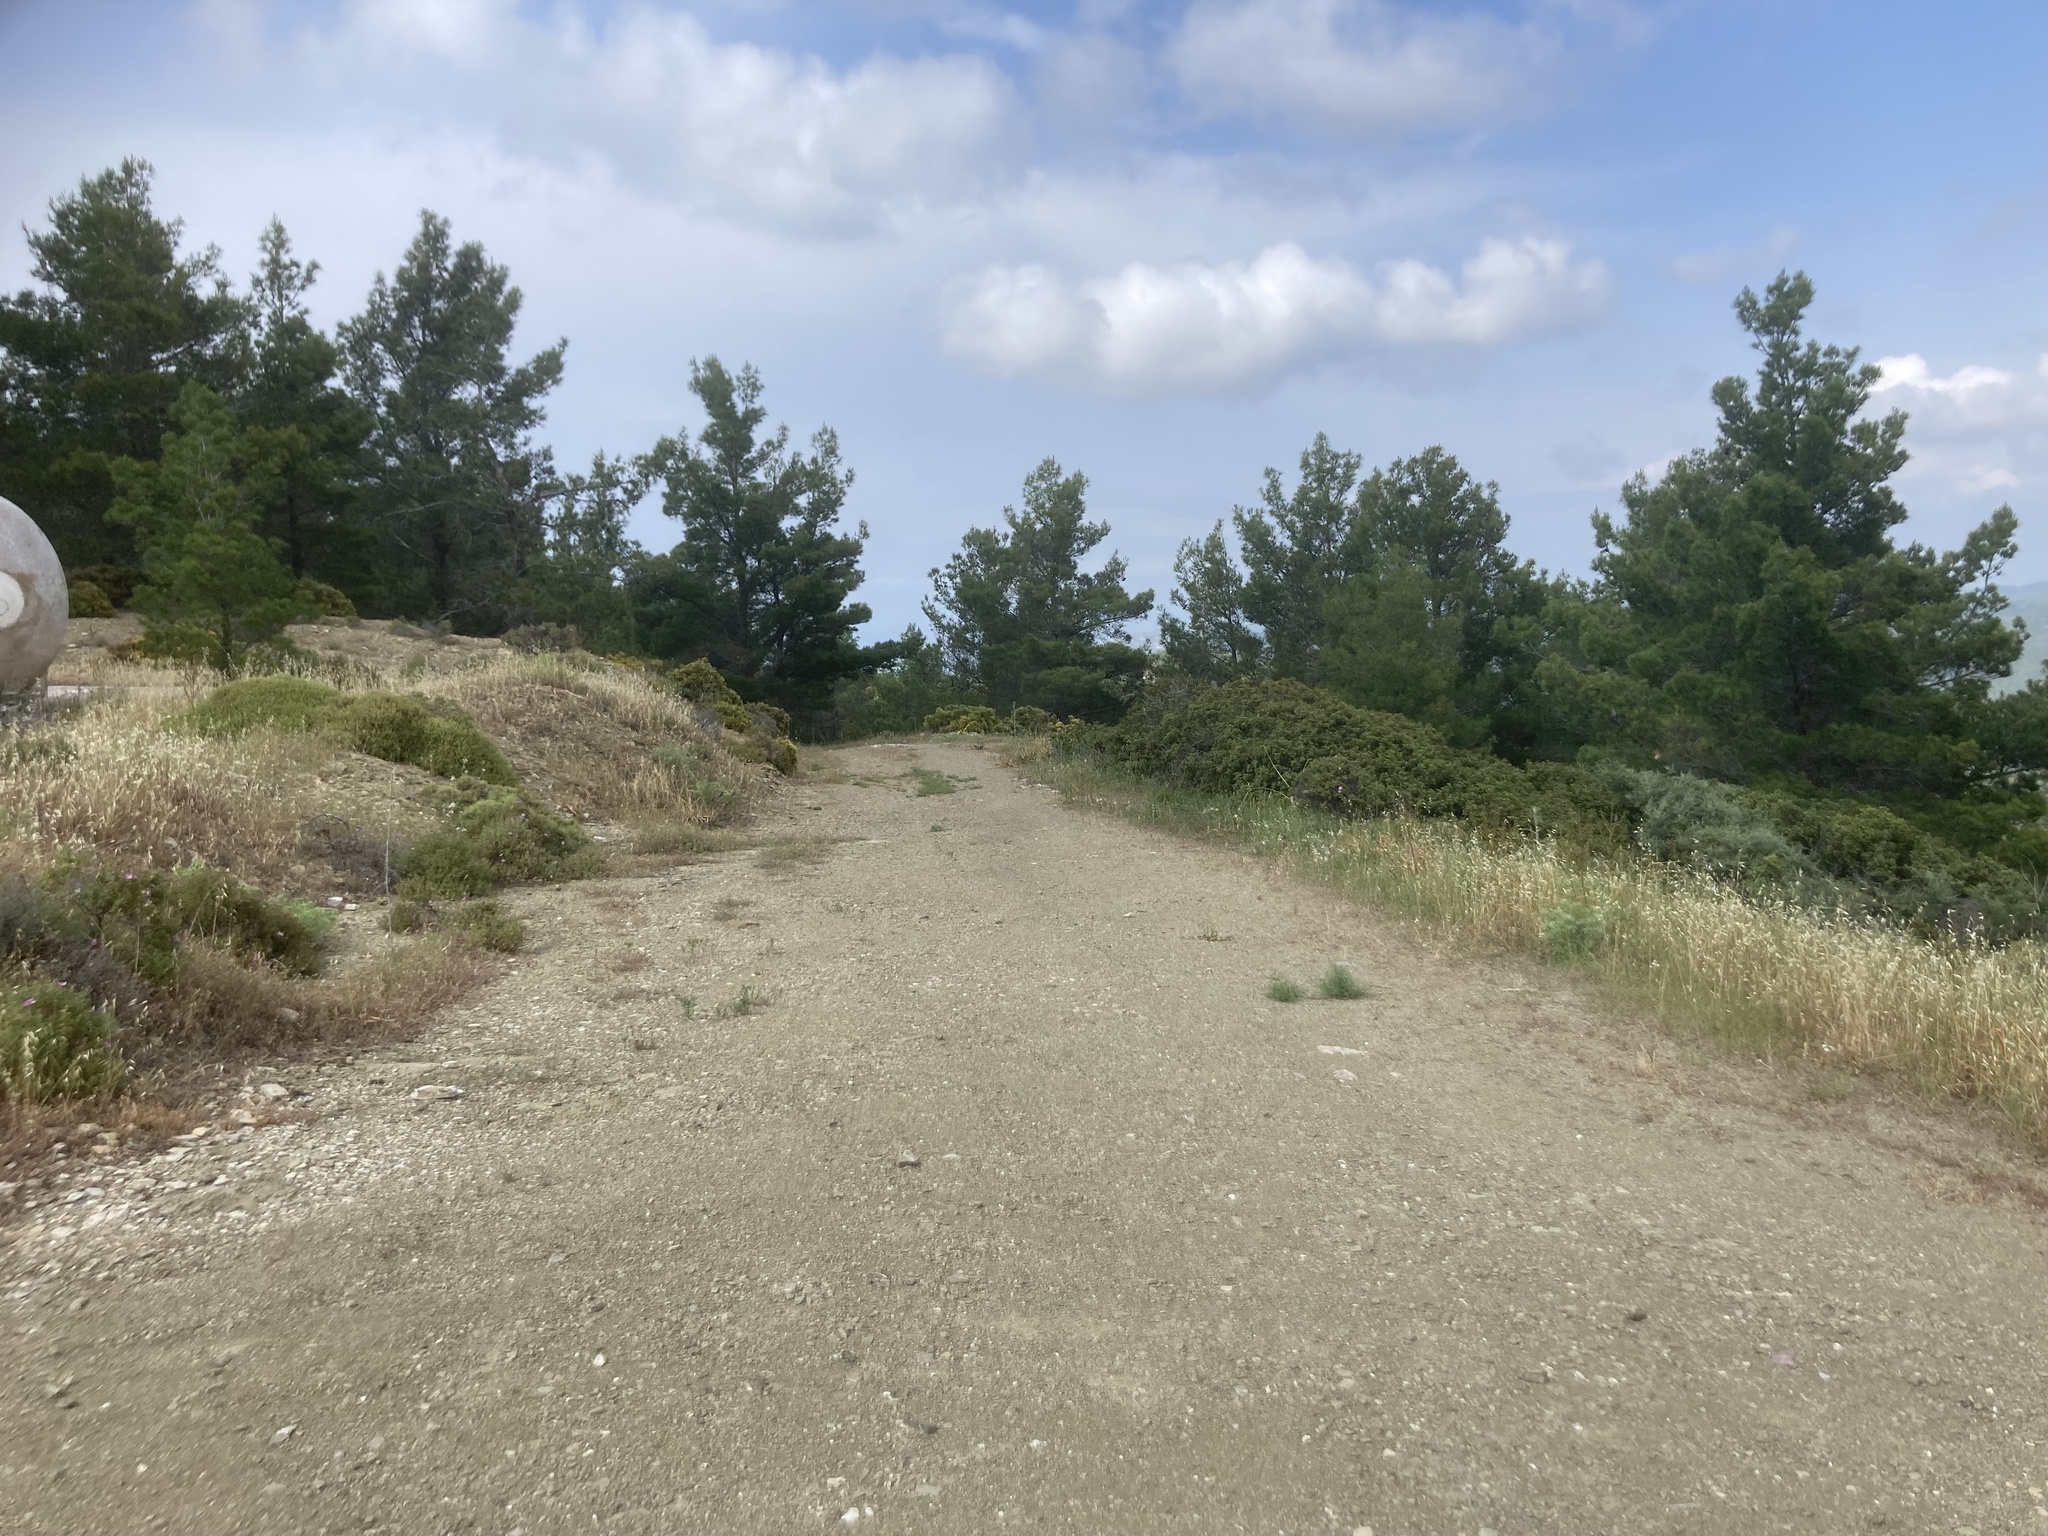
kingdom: Plantae
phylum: Tracheophyta
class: Pinopsida
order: Pinales
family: Pinaceae
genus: Pinus
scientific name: Pinus brutia
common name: Turkish pine
